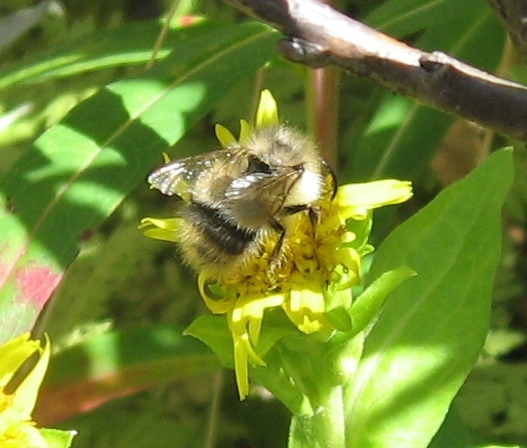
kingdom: Animalia
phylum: Arthropoda
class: Insecta
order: Hymenoptera
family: Apidae
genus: Bombus
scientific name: Bombus mixtus
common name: Fuzzy-horned bumble bee
